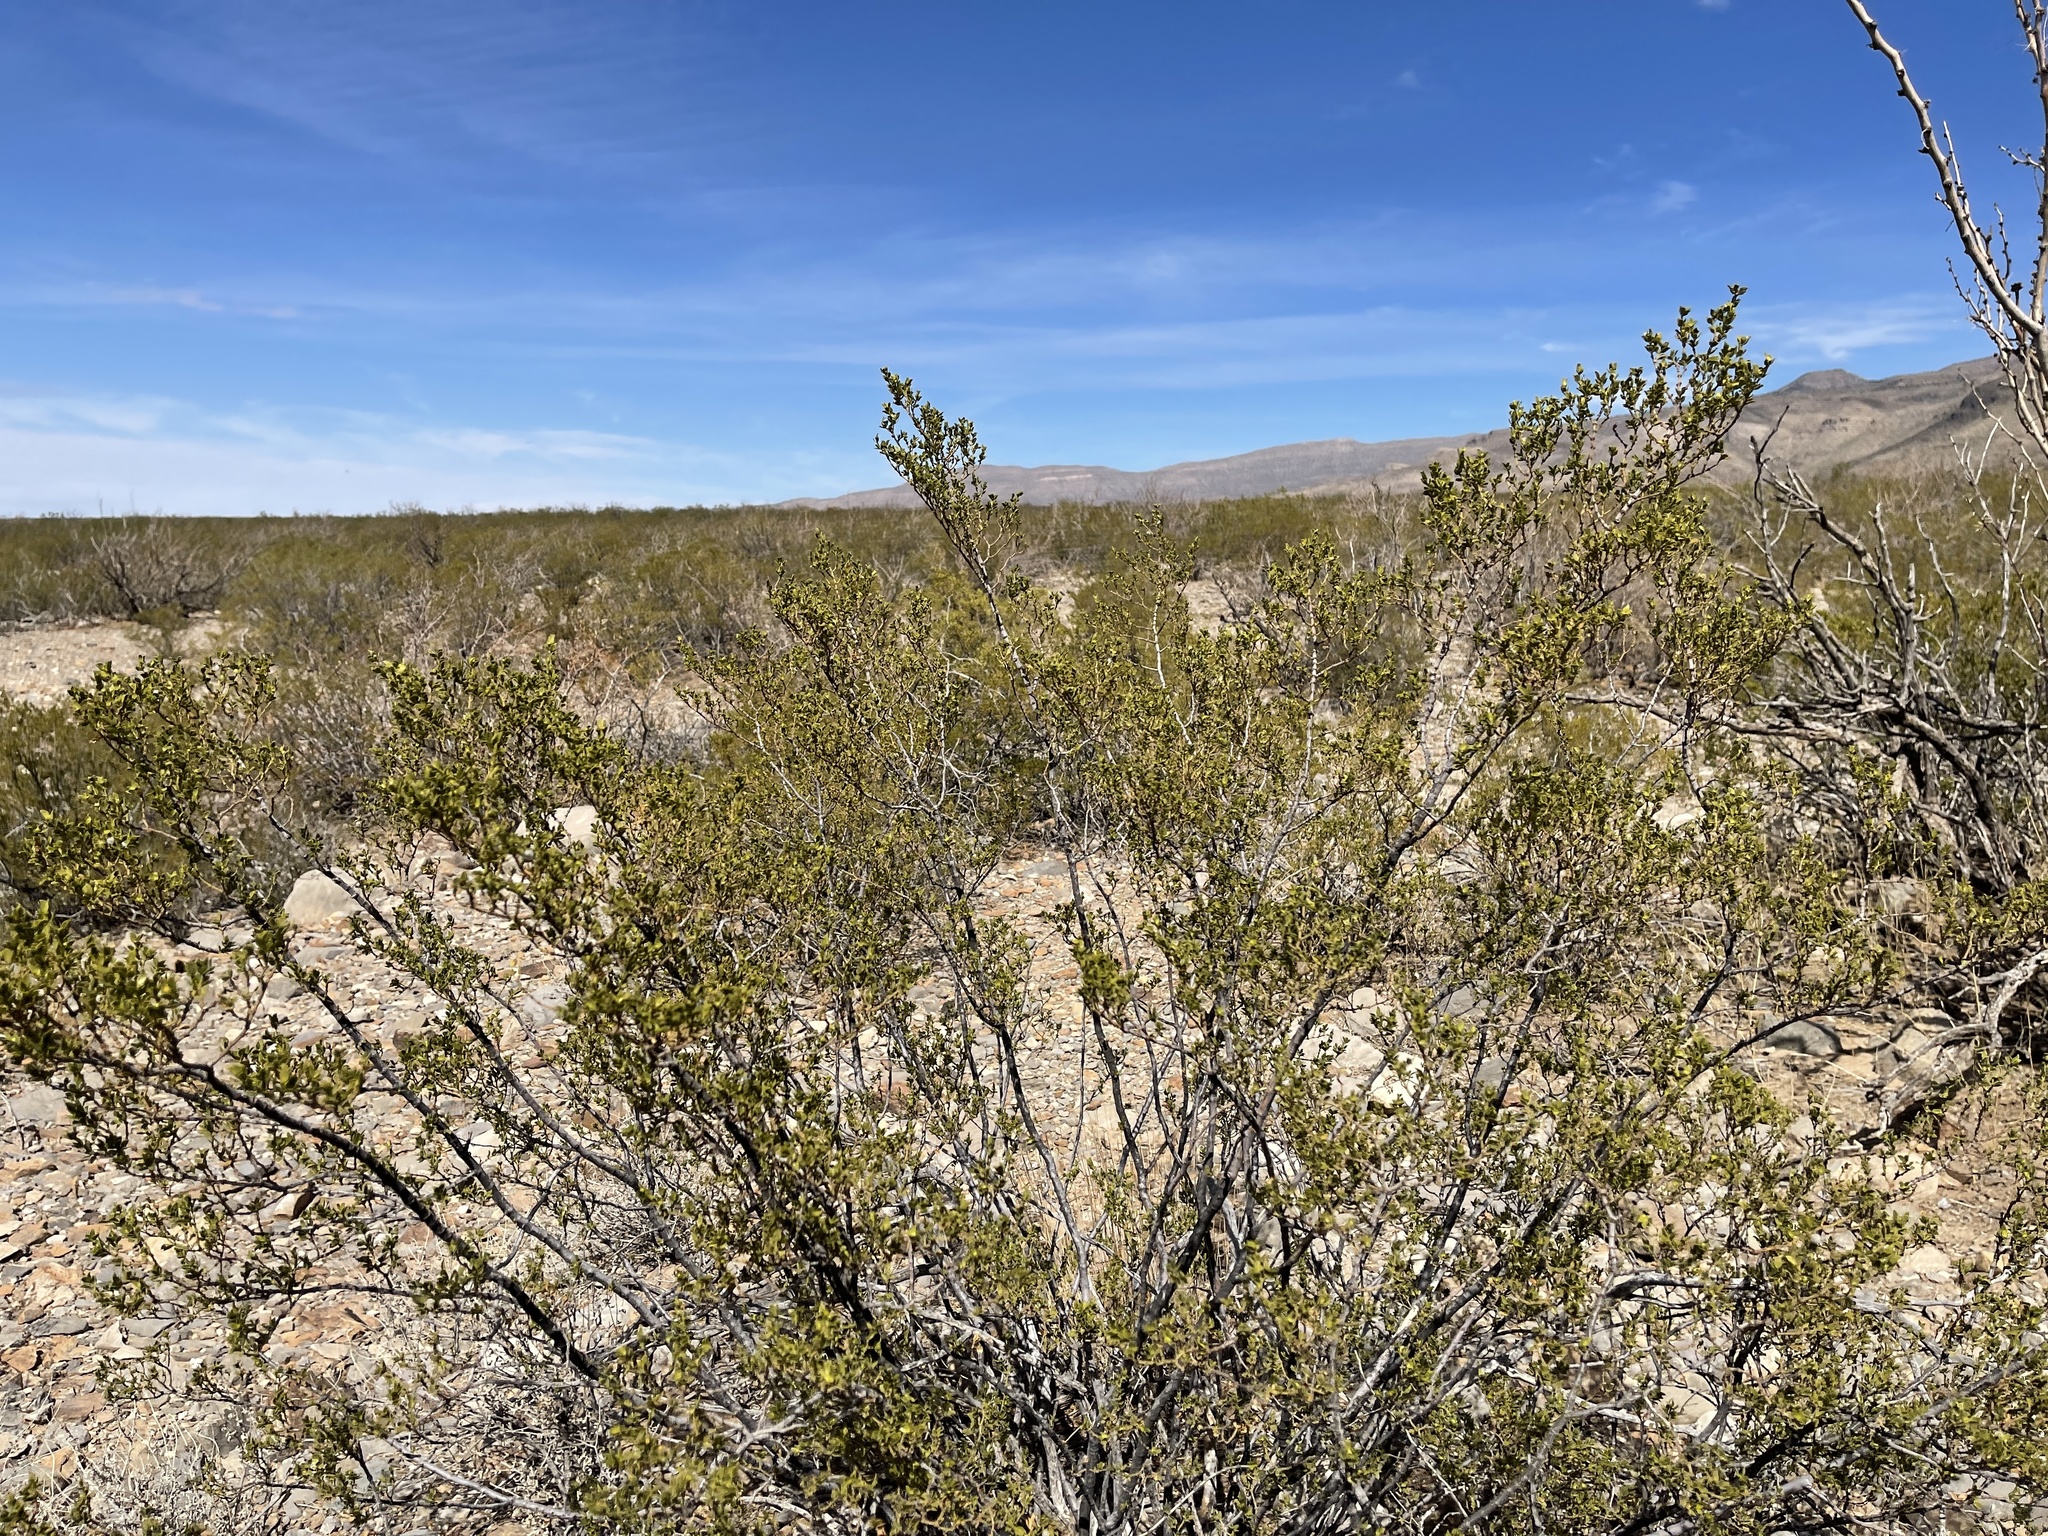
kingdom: Plantae
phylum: Tracheophyta
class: Magnoliopsida
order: Zygophyllales
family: Zygophyllaceae
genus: Larrea
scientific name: Larrea tridentata
